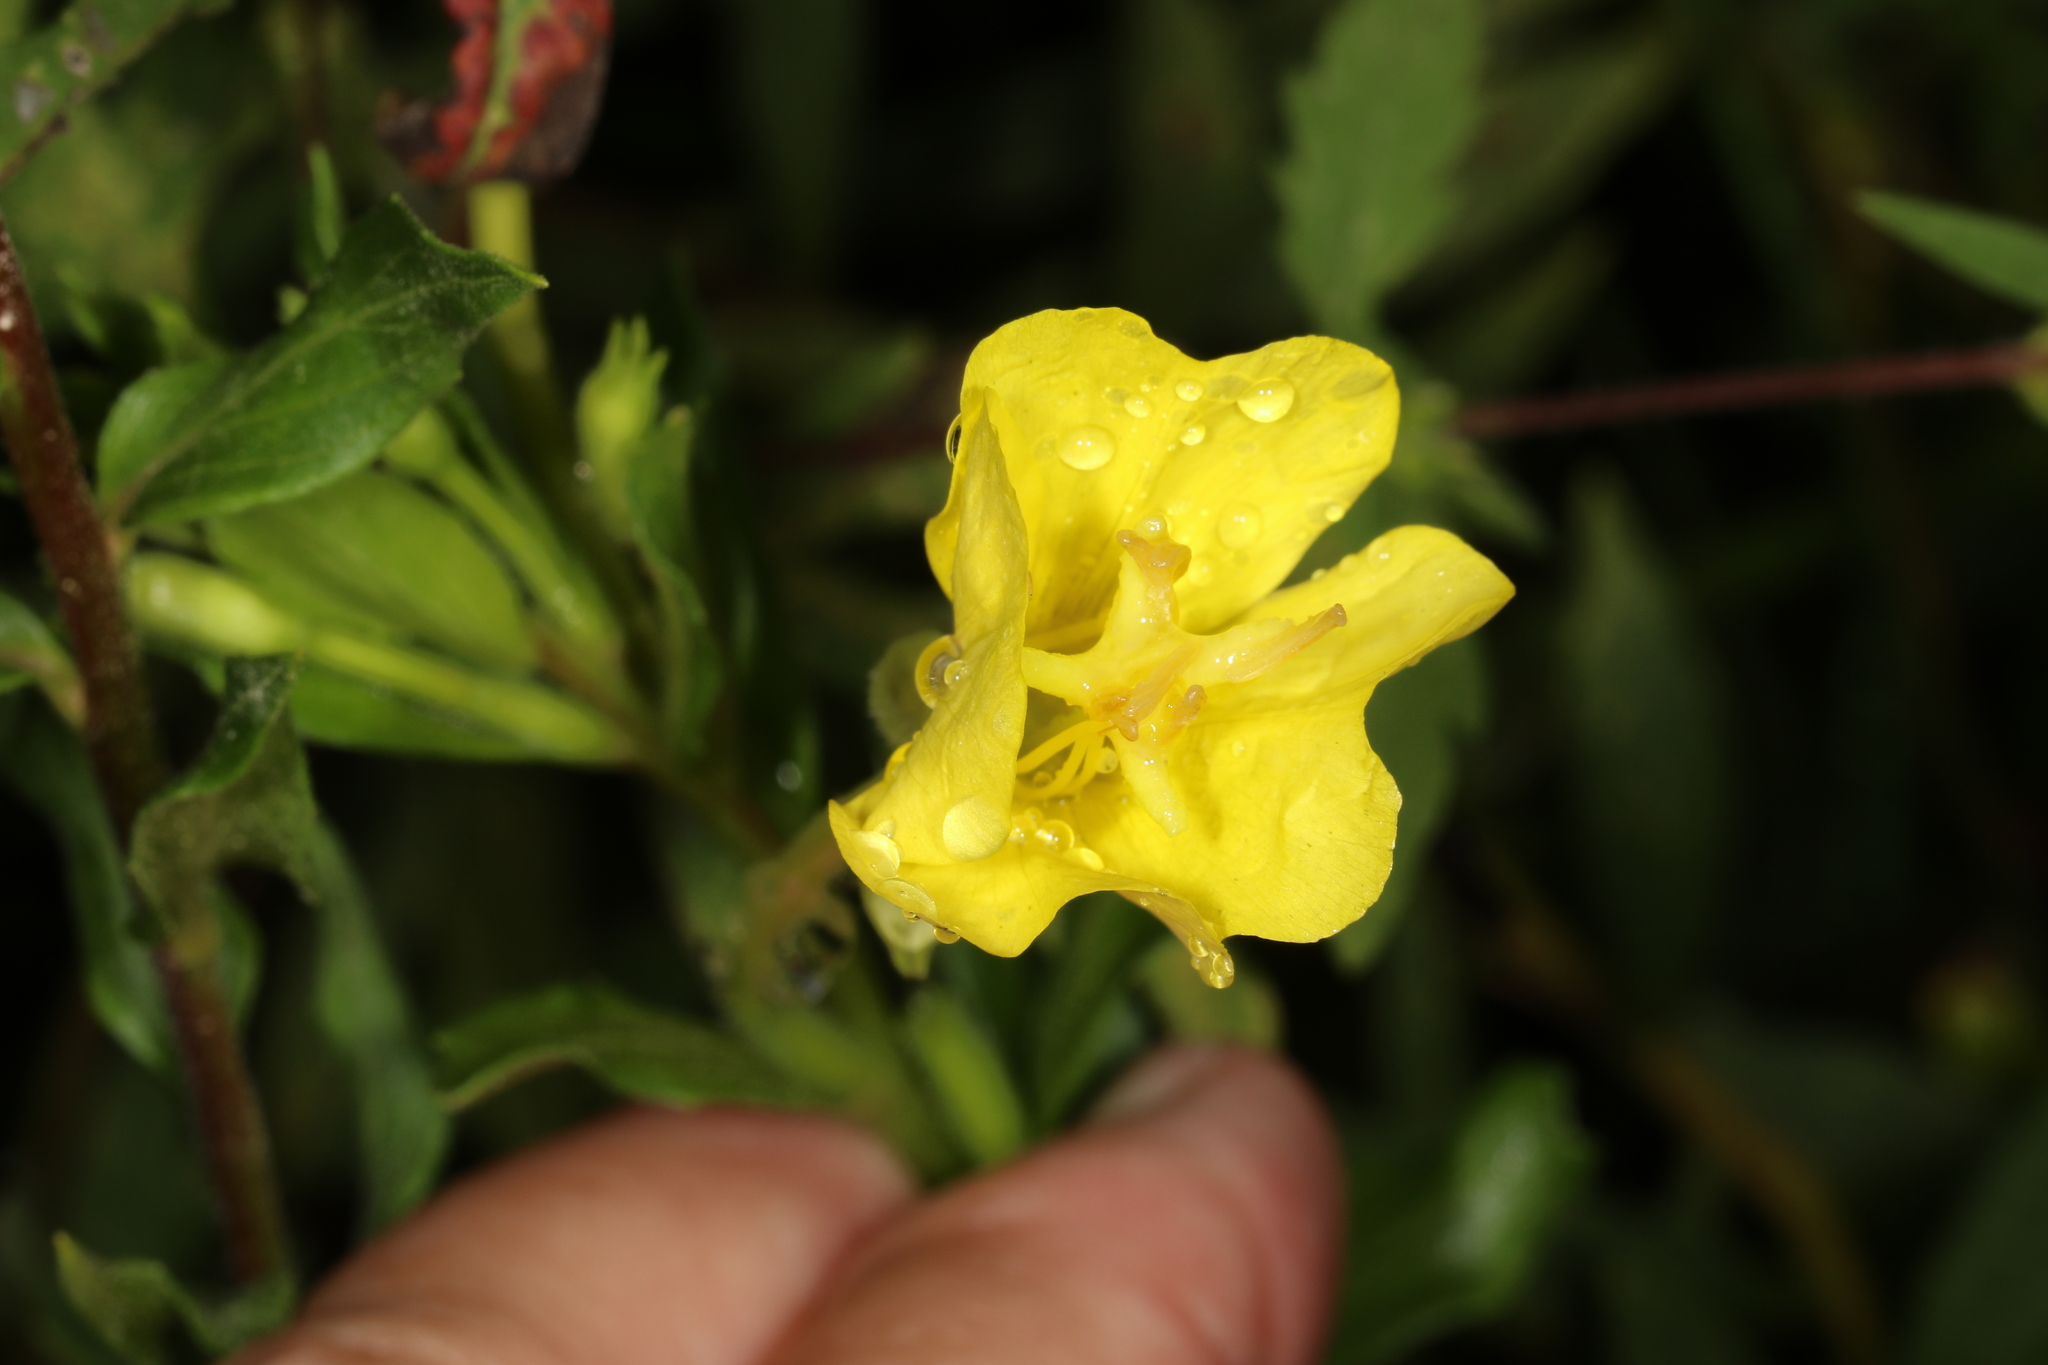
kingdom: Plantae
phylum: Tracheophyta
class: Magnoliopsida
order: Myrtales
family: Onagraceae
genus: Oenothera
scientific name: Oenothera biennis
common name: Common evening-primrose
